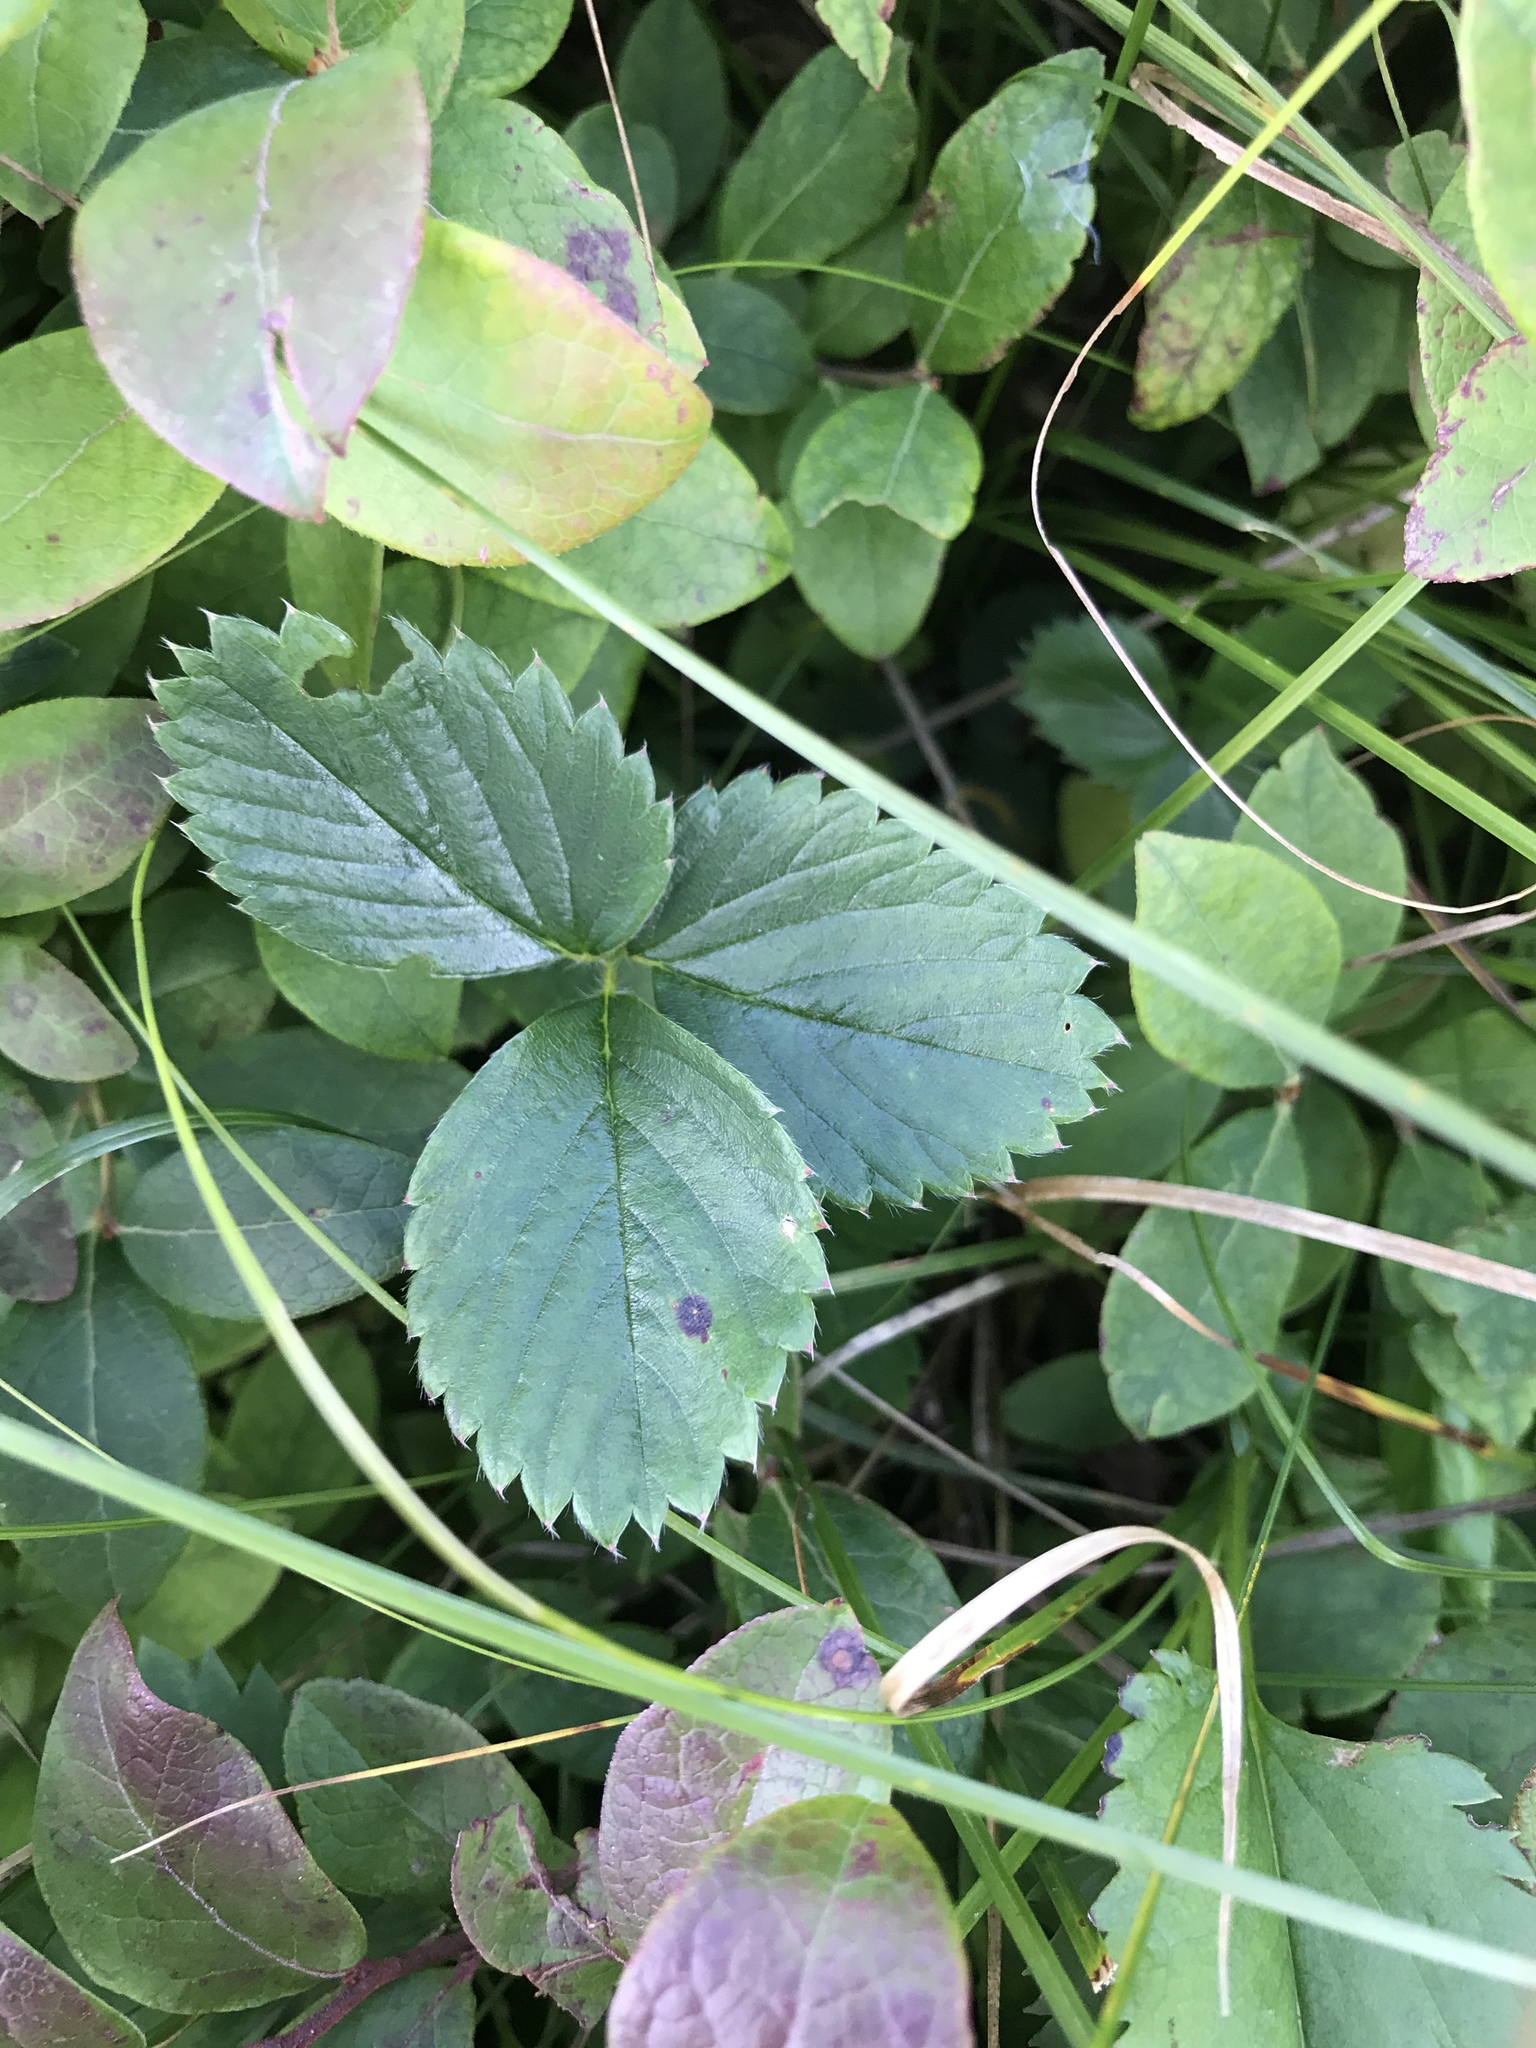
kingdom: Plantae
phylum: Tracheophyta
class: Magnoliopsida
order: Rosales
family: Rosaceae
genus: Fragaria
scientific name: Fragaria virginiana
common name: Thickleaved wild strawberry
